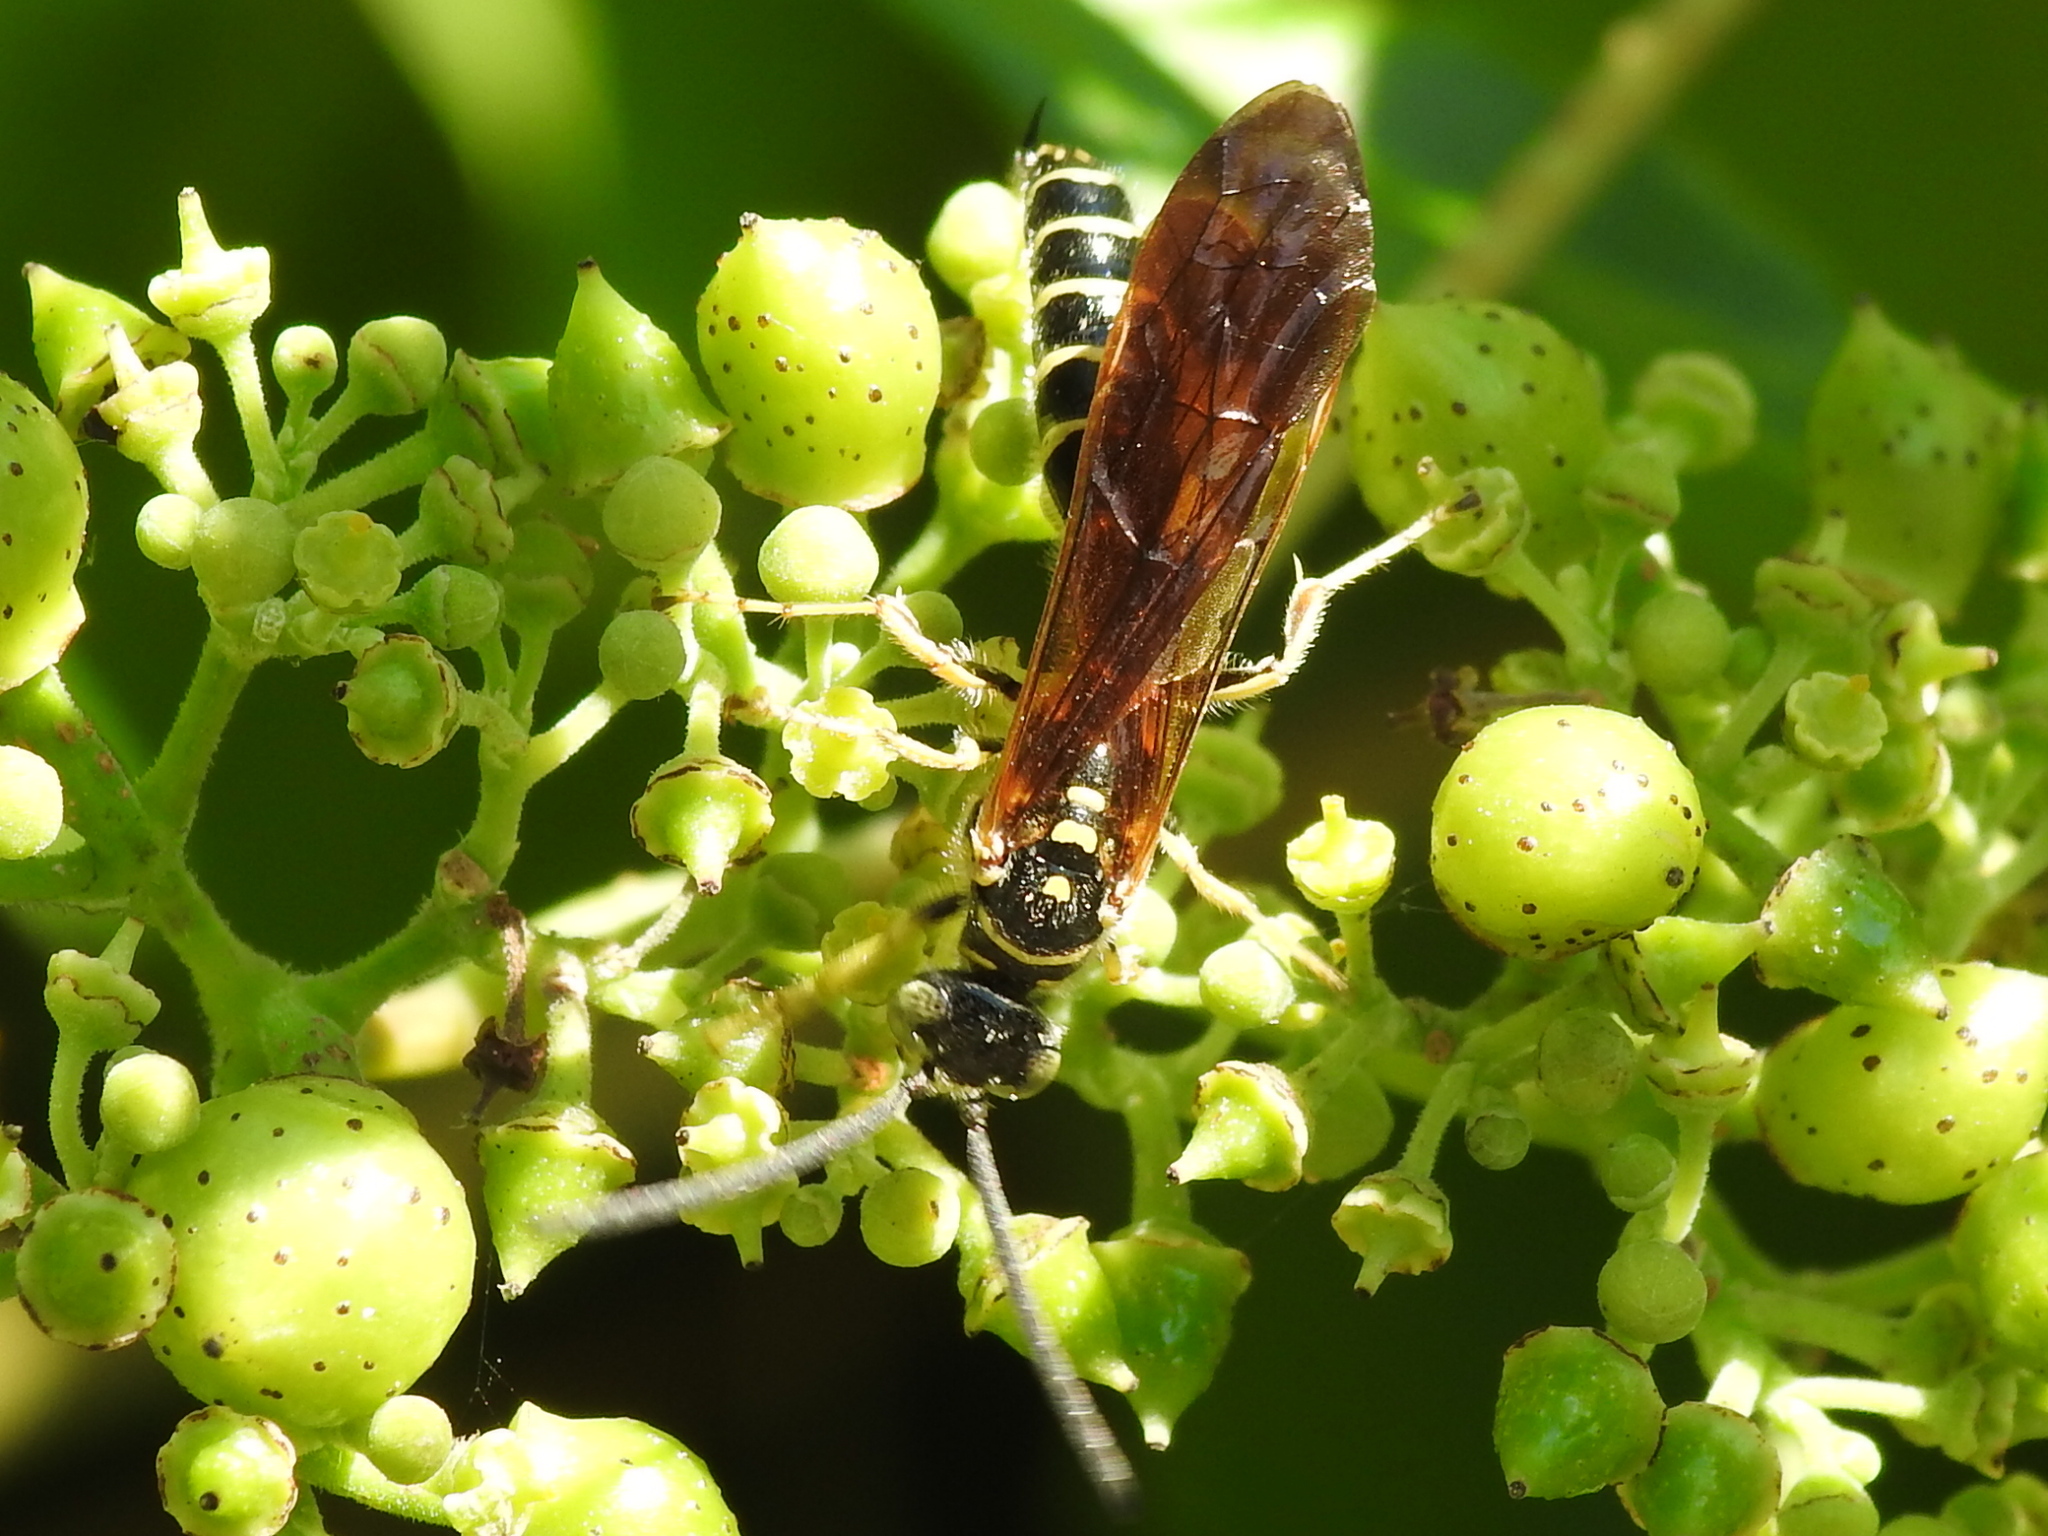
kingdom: Animalia
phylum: Arthropoda
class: Insecta
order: Hymenoptera
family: Tiphiidae
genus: Myzinum
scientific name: Myzinum quinquecinctum
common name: Five-banded thynnid wasp
